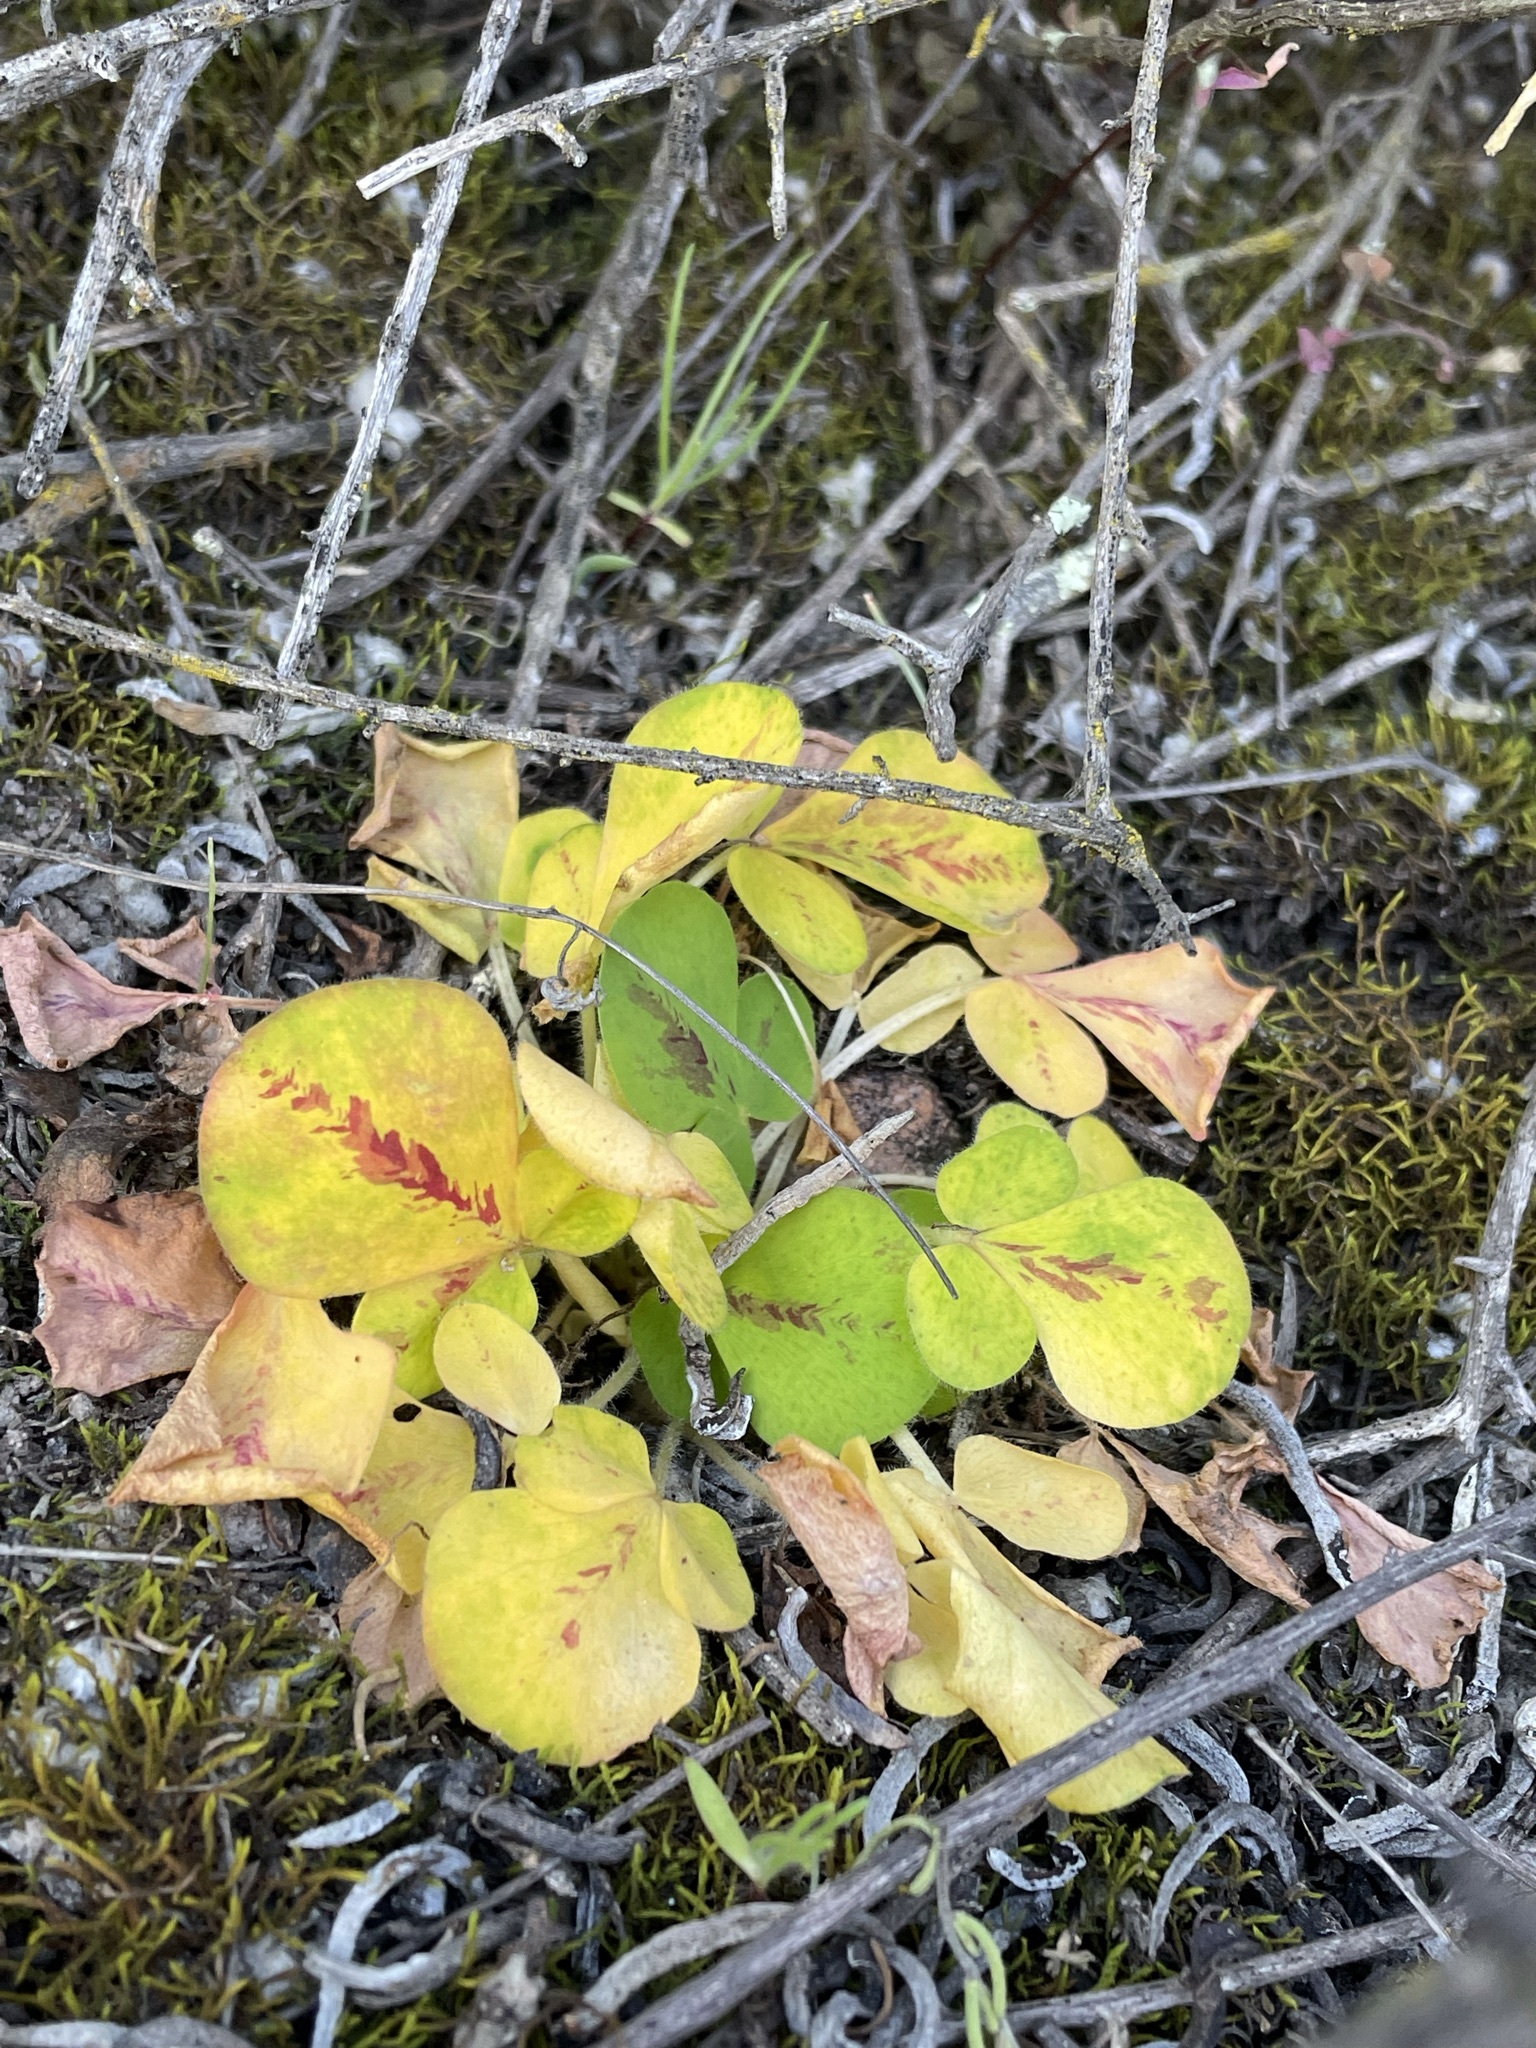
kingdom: Plantae
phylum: Tracheophyta
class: Magnoliopsida
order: Oxalidales
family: Oxalidaceae
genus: Oxalis
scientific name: Oxalis purpurea
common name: Purple woodsorrel
